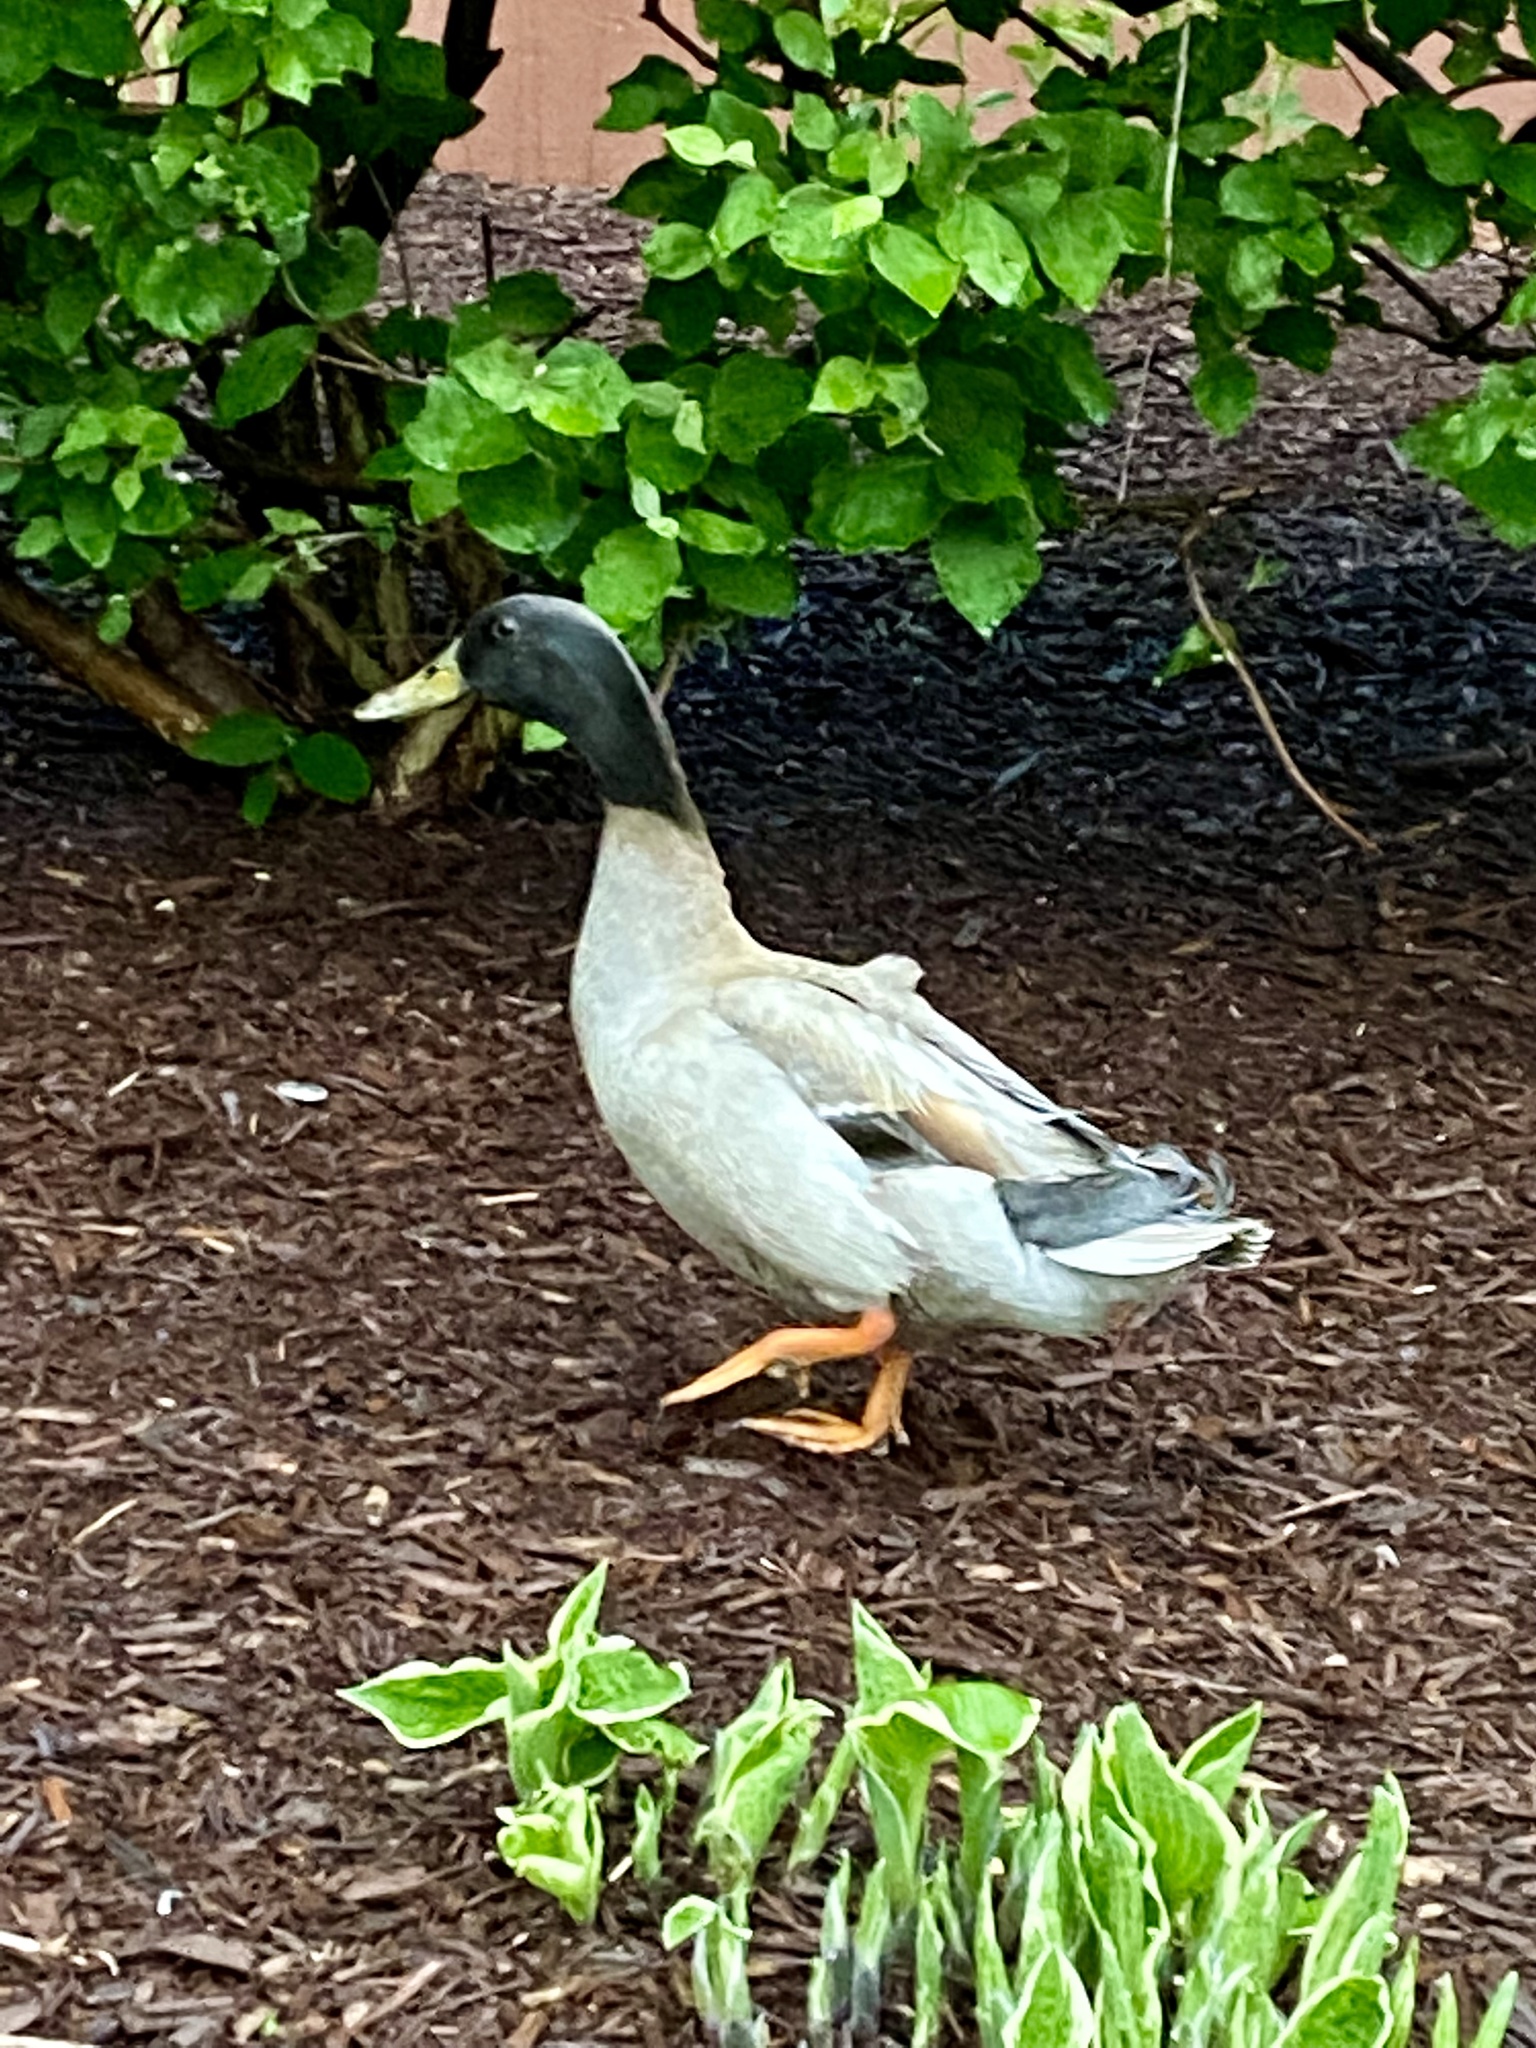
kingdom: Animalia
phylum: Chordata
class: Aves
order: Anseriformes
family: Anatidae
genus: Anas
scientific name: Anas platyrhynchos
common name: Mallard
